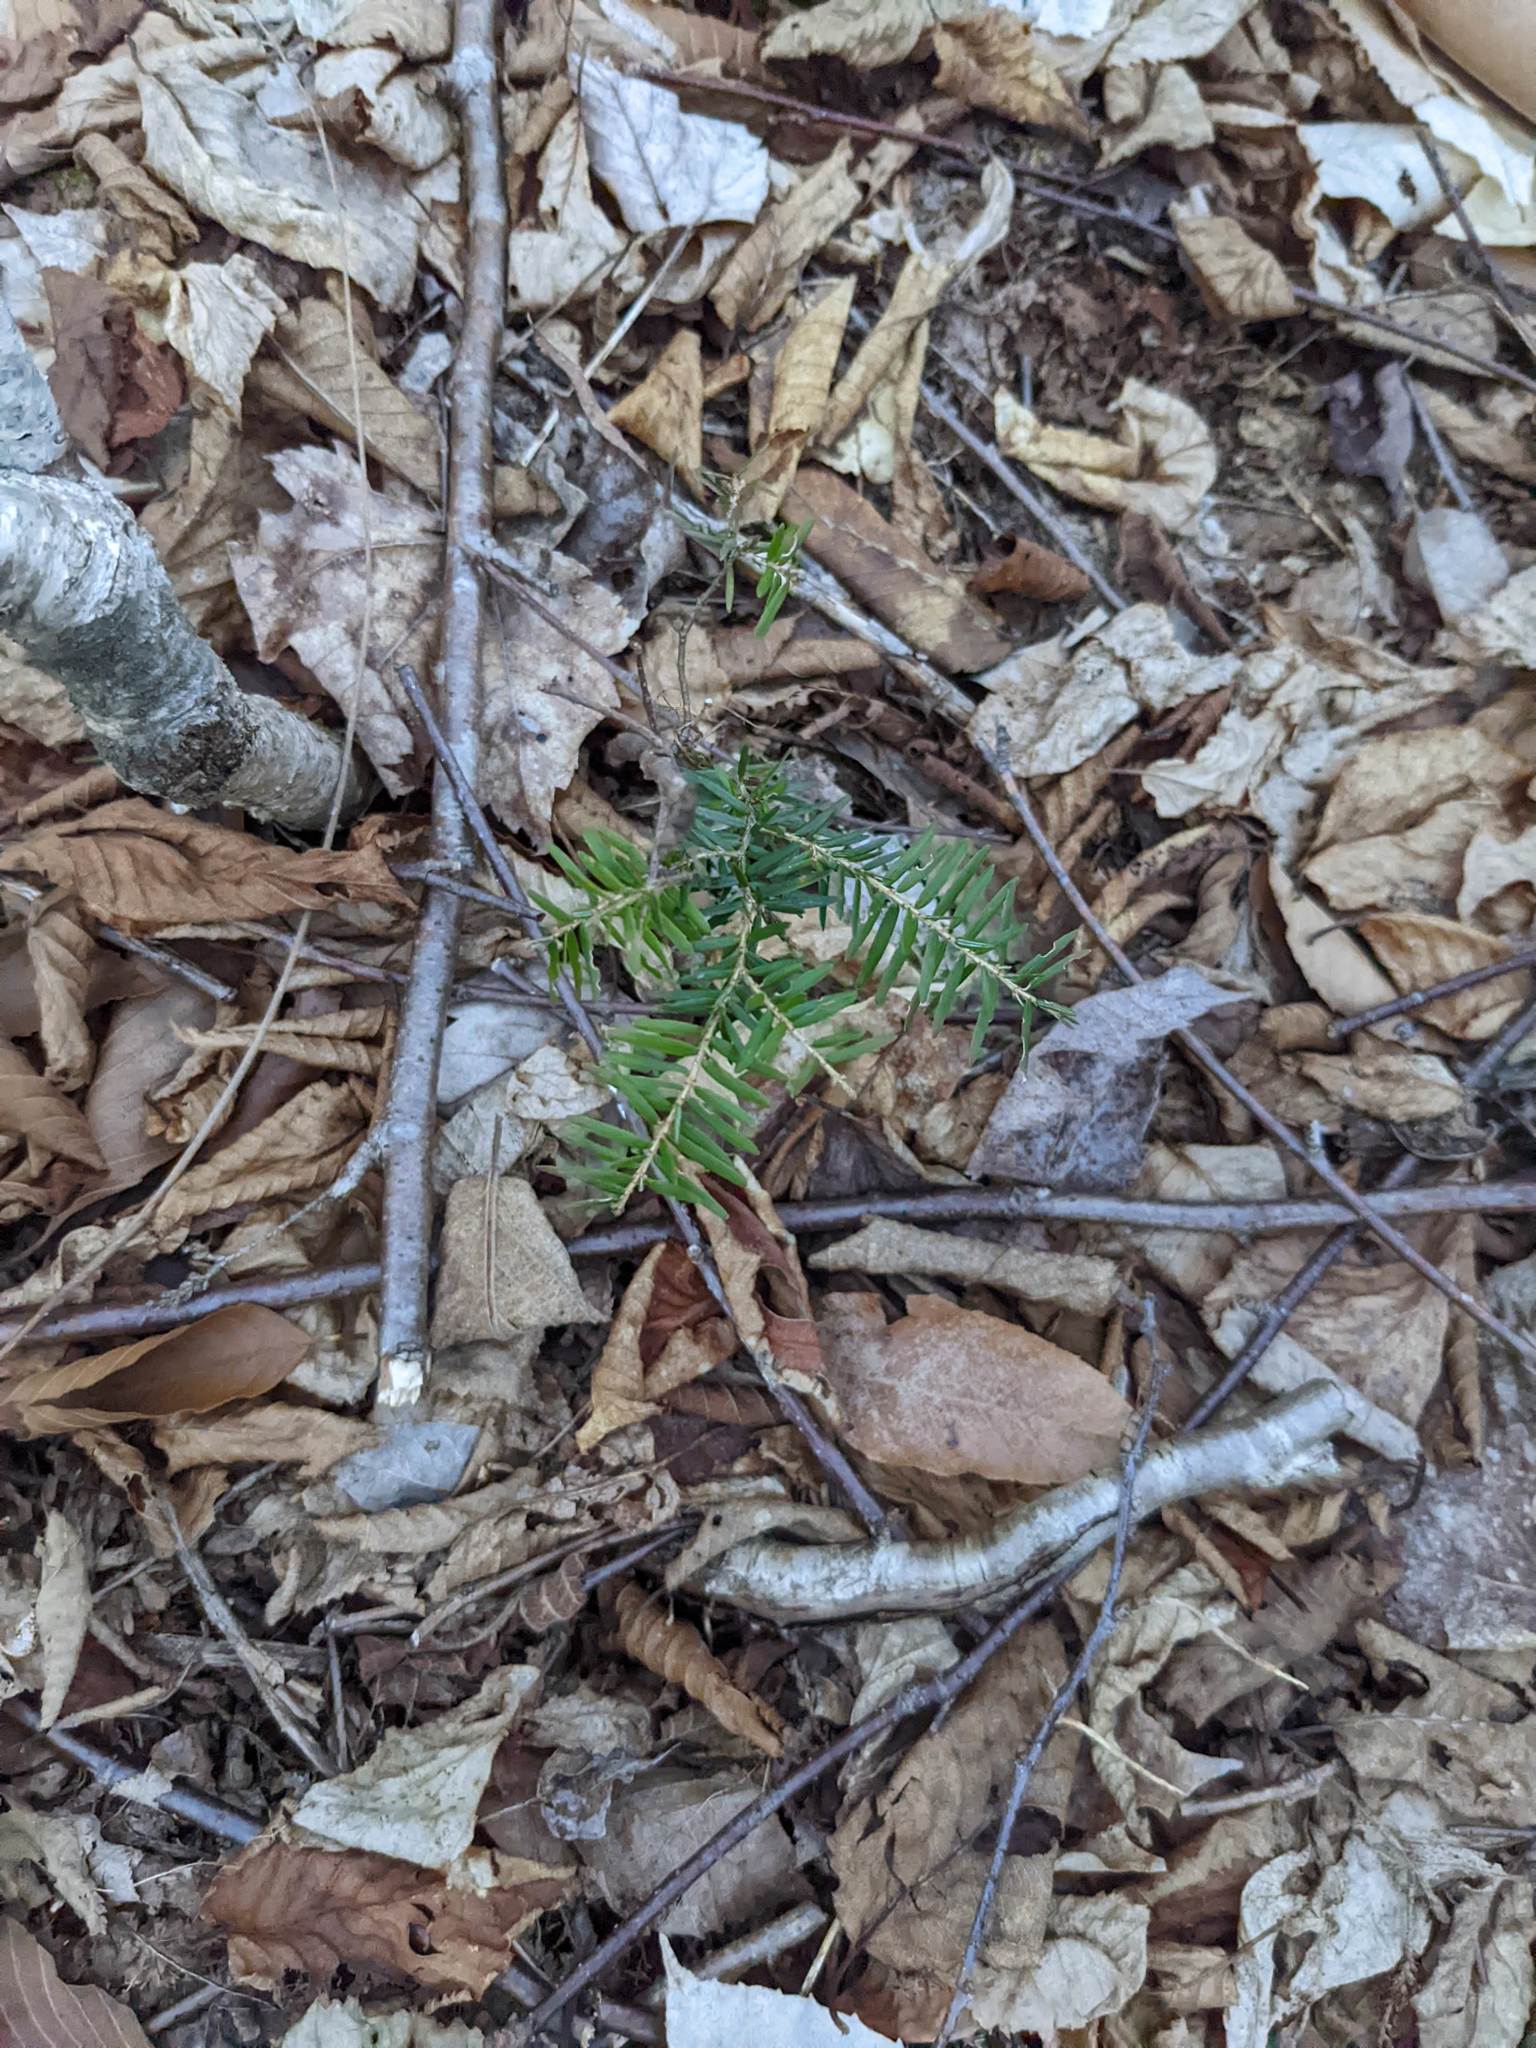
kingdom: Plantae
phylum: Tracheophyta
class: Pinopsida
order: Pinales
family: Pinaceae
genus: Tsuga
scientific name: Tsuga canadensis
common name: Eastern hemlock
